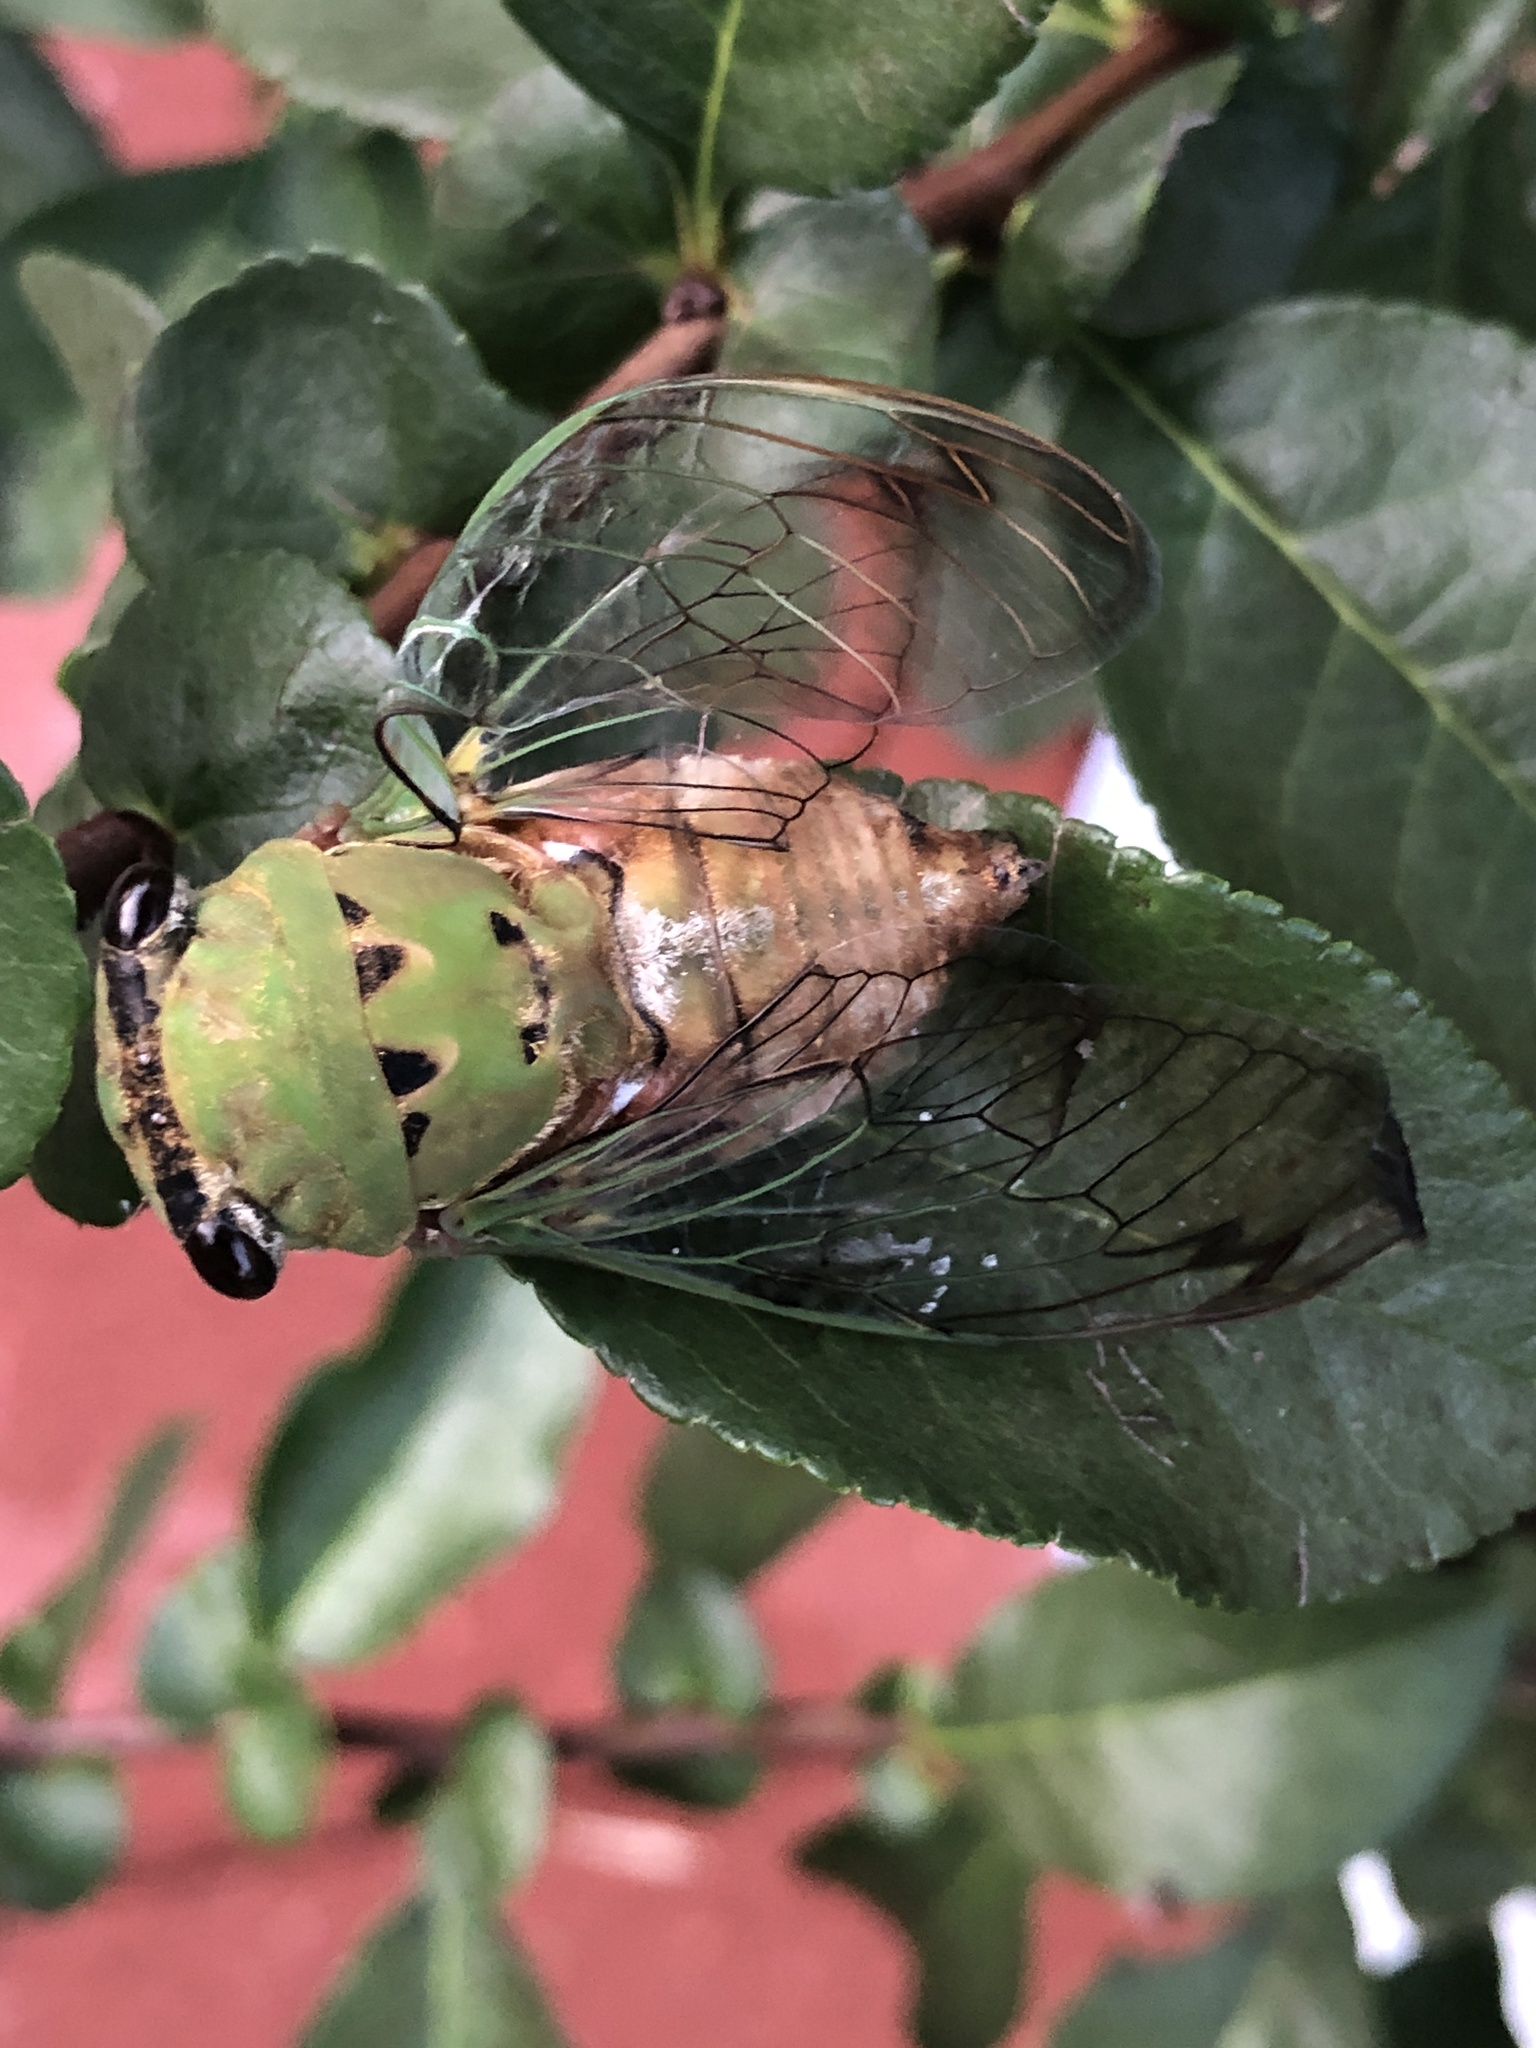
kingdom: Animalia
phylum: Arthropoda
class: Insecta
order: Hemiptera
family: Cicadidae
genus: Neotibicen
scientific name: Neotibicen superbus
